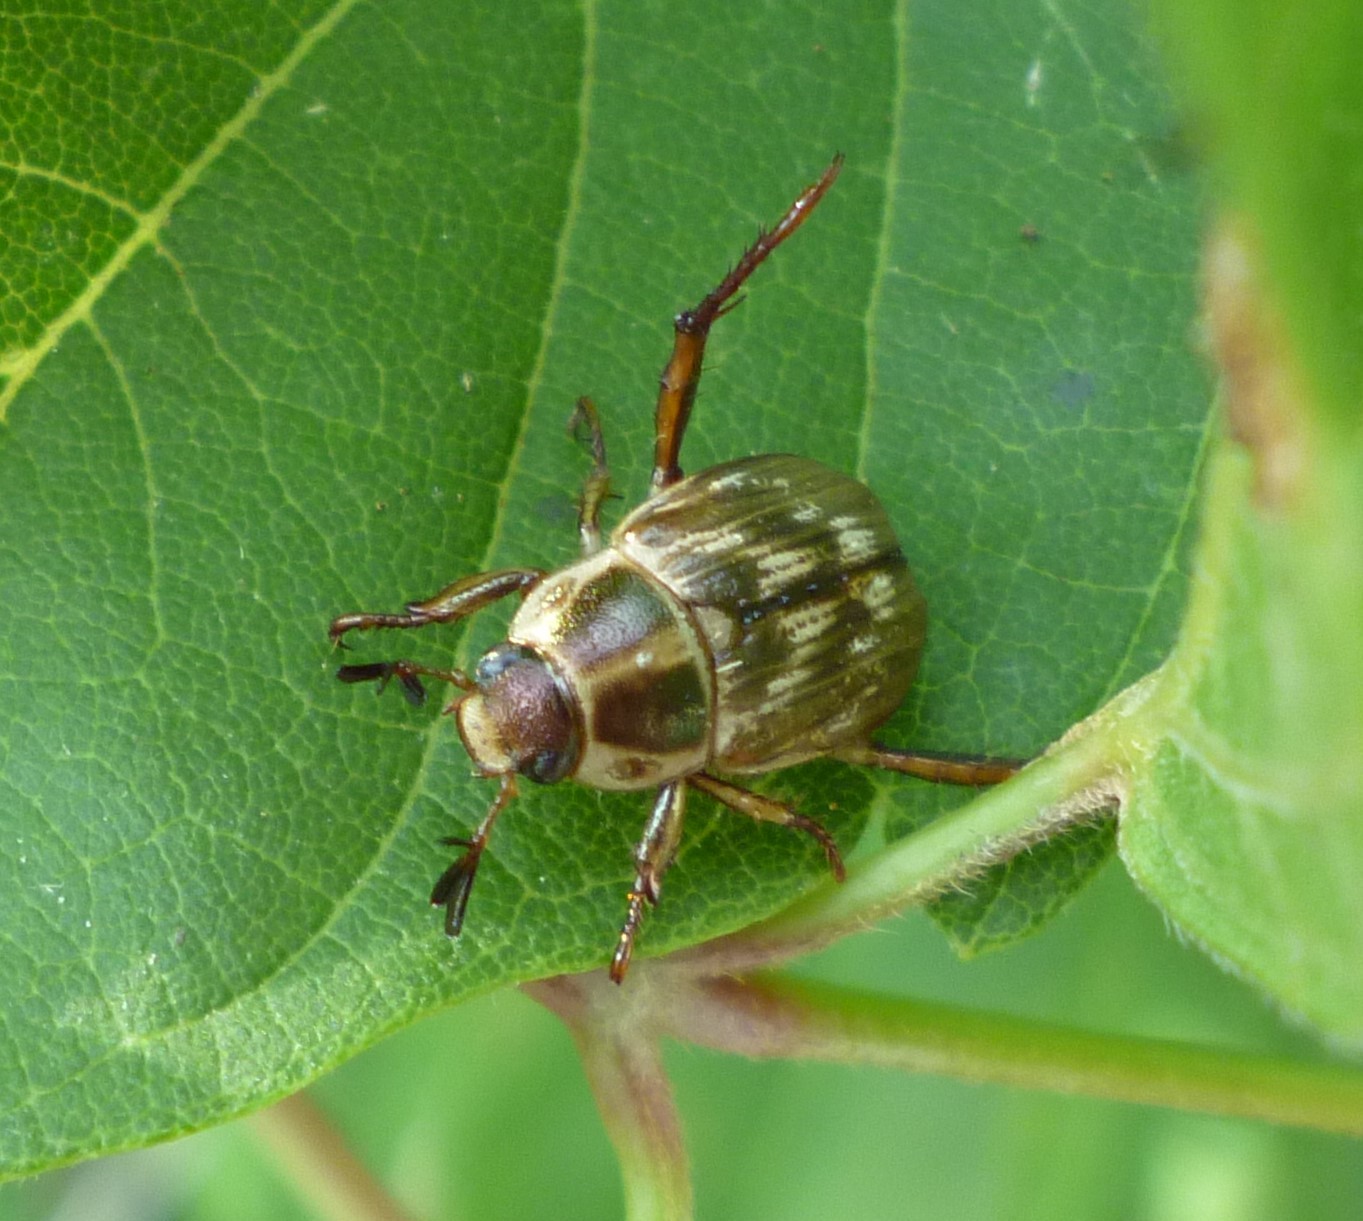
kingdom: Animalia
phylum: Arthropoda
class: Insecta
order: Coleoptera
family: Scarabaeidae
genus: Exomala
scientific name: Exomala orientalis
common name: Oriental beetle
